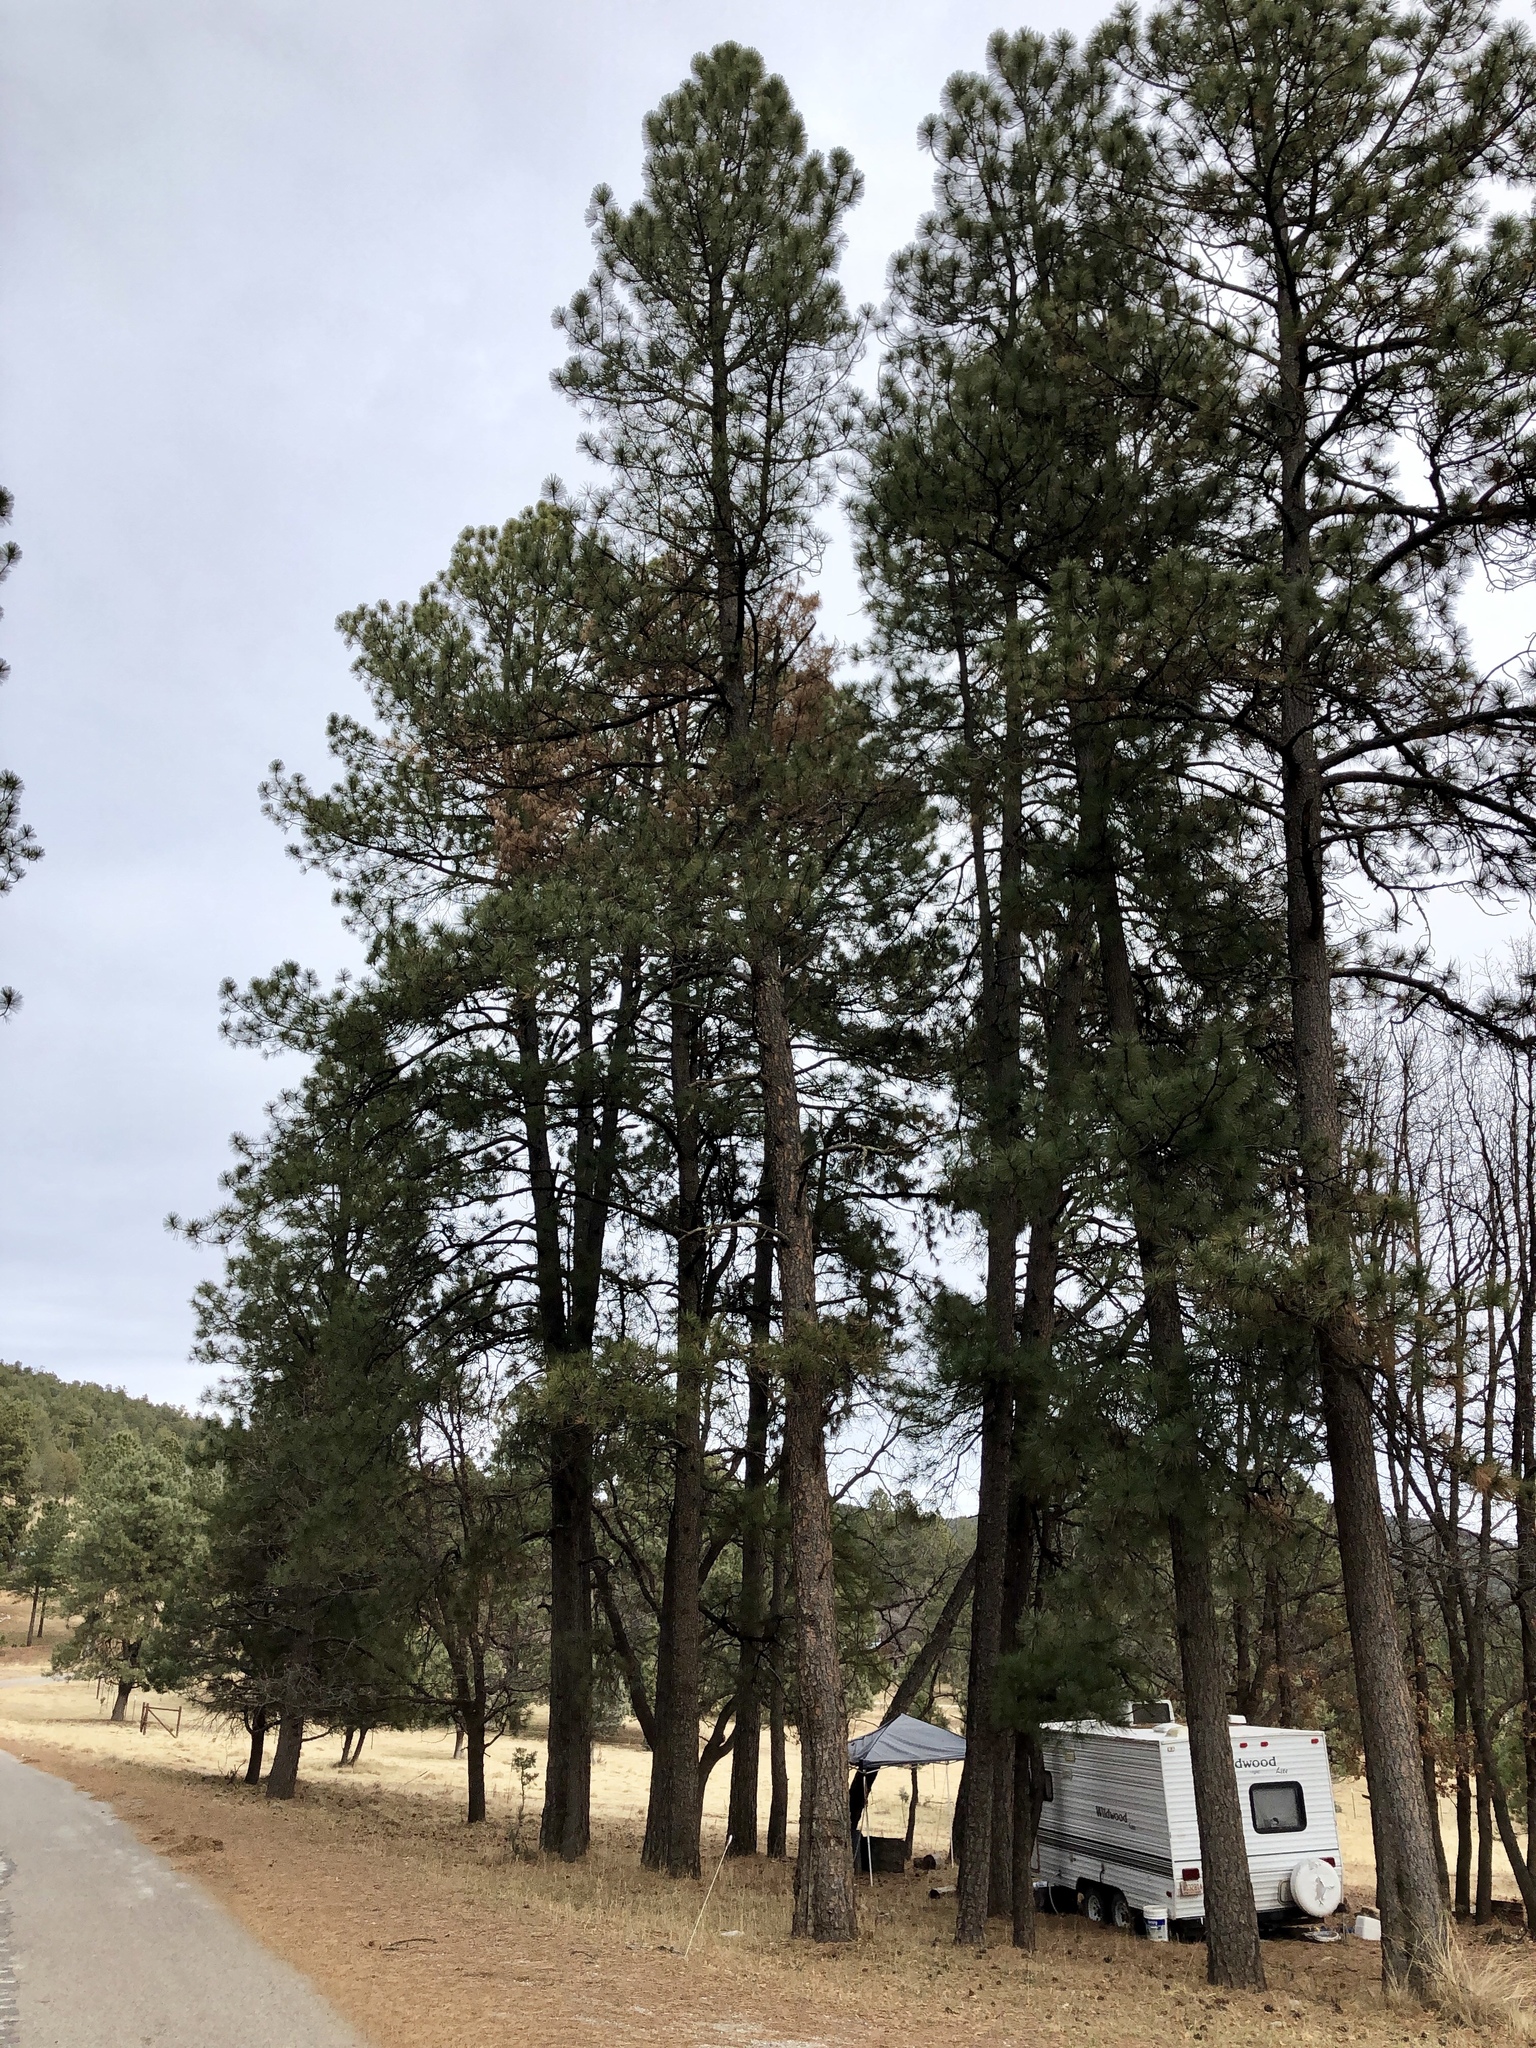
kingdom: Plantae
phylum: Tracheophyta
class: Pinopsida
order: Pinales
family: Pinaceae
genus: Pinus
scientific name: Pinus ponderosa
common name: Western yellow-pine
